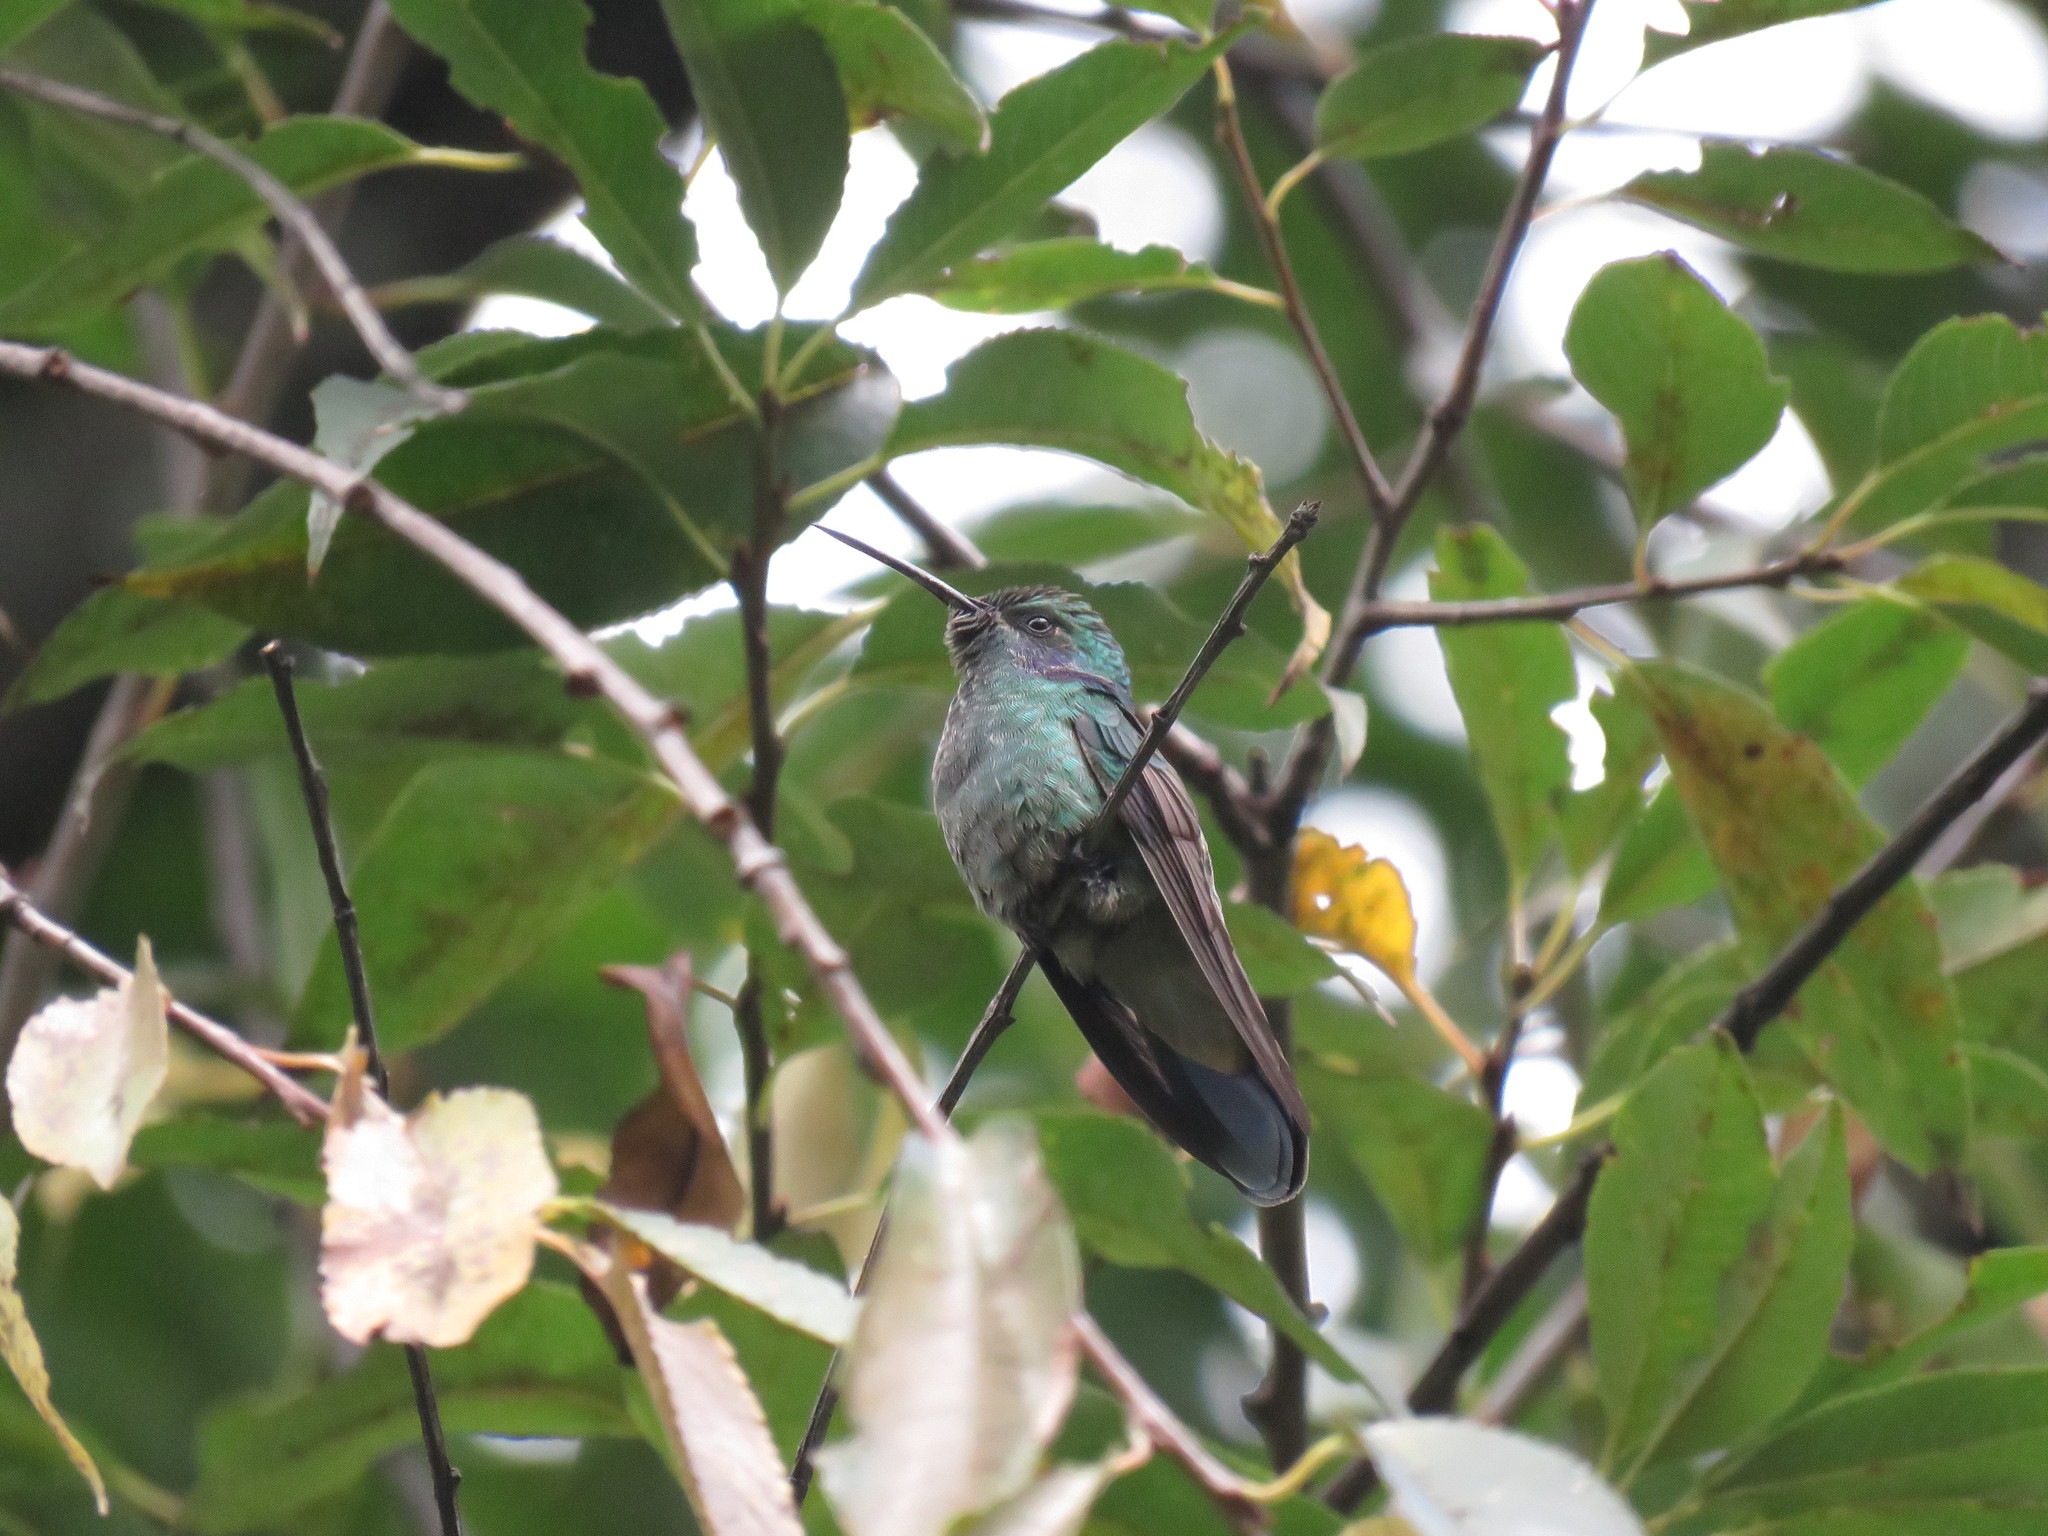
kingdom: Animalia
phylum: Chordata
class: Aves
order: Apodiformes
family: Trochilidae
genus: Colibri
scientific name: Colibri cyanotus
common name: Lesser violetear
